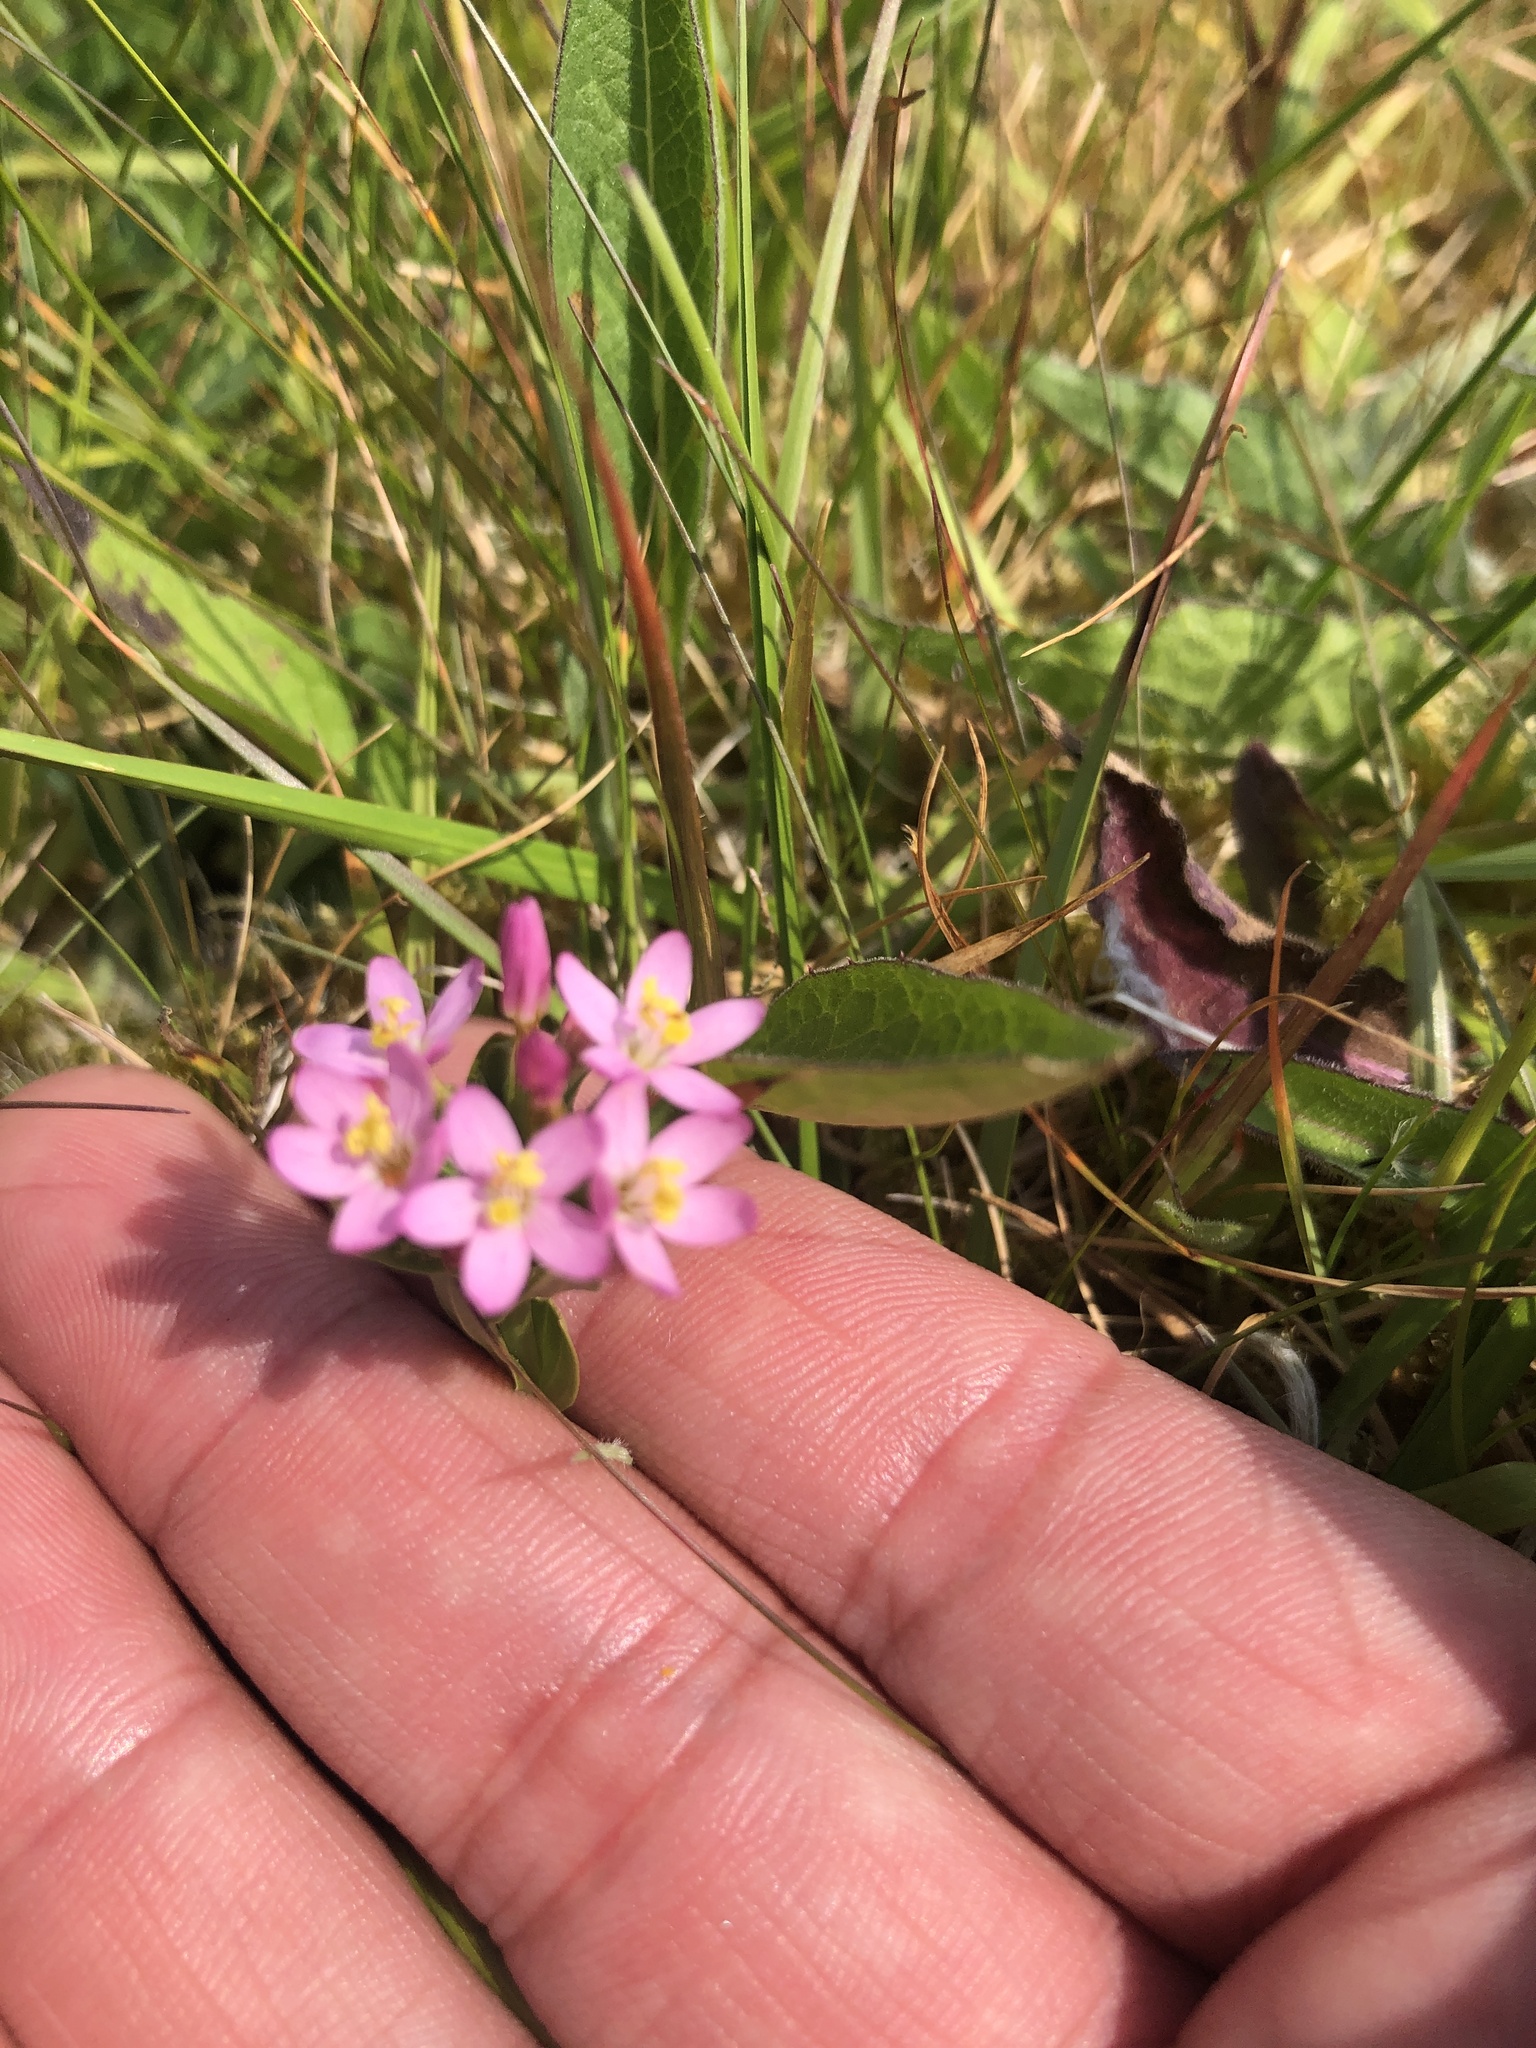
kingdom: Plantae
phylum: Tracheophyta
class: Magnoliopsida
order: Gentianales
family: Gentianaceae
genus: Centaurium
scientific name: Centaurium erythraea
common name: Common centaury
